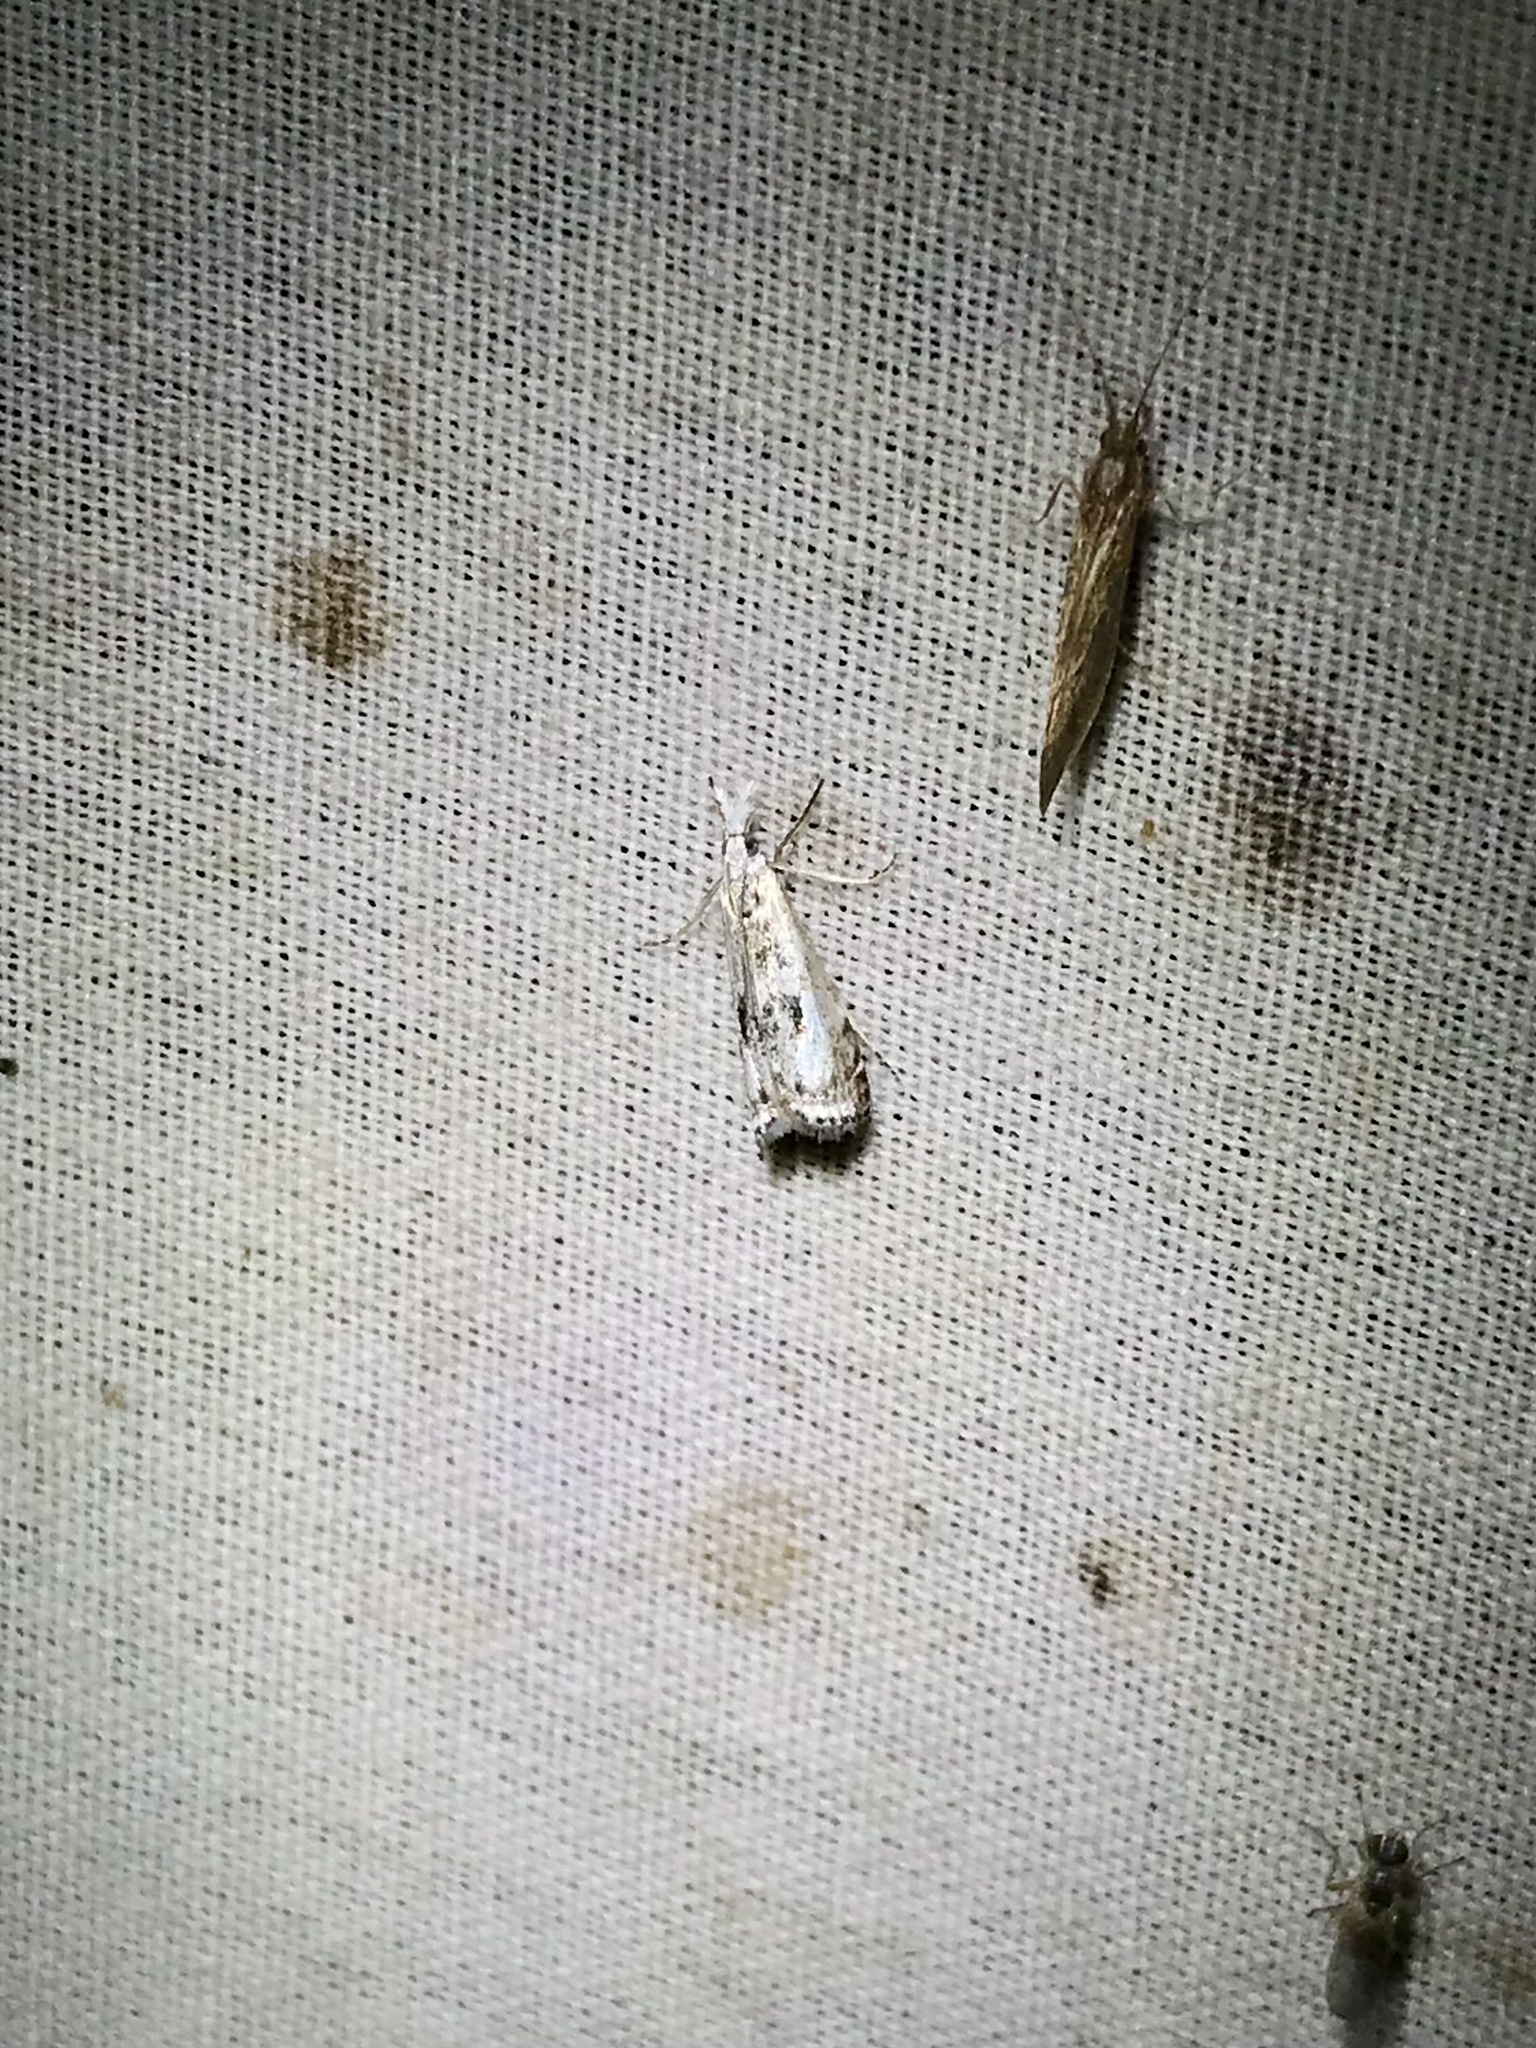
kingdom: Animalia
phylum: Arthropoda
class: Insecta
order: Lepidoptera
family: Crambidae
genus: Microcrambus
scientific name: Microcrambus immunellus
